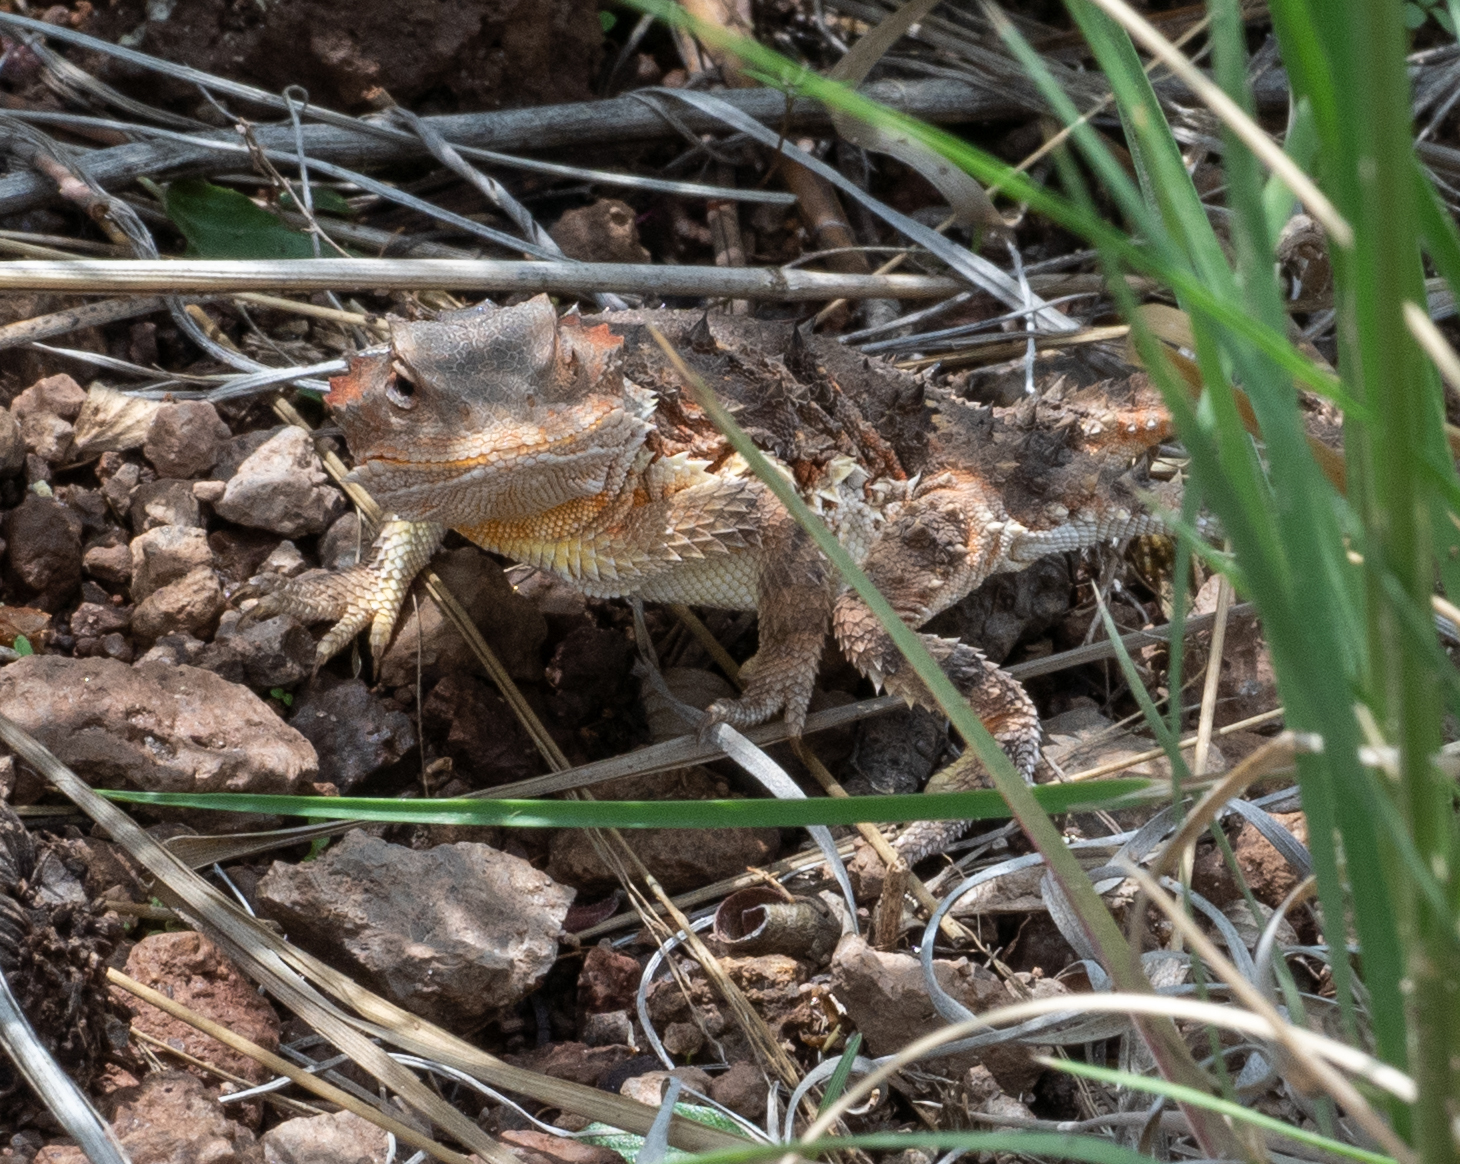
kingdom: Animalia
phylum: Chordata
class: Squamata
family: Phrynosomatidae
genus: Phrynosoma
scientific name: Phrynosoma hernandesi
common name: Greater short-horned lizard
